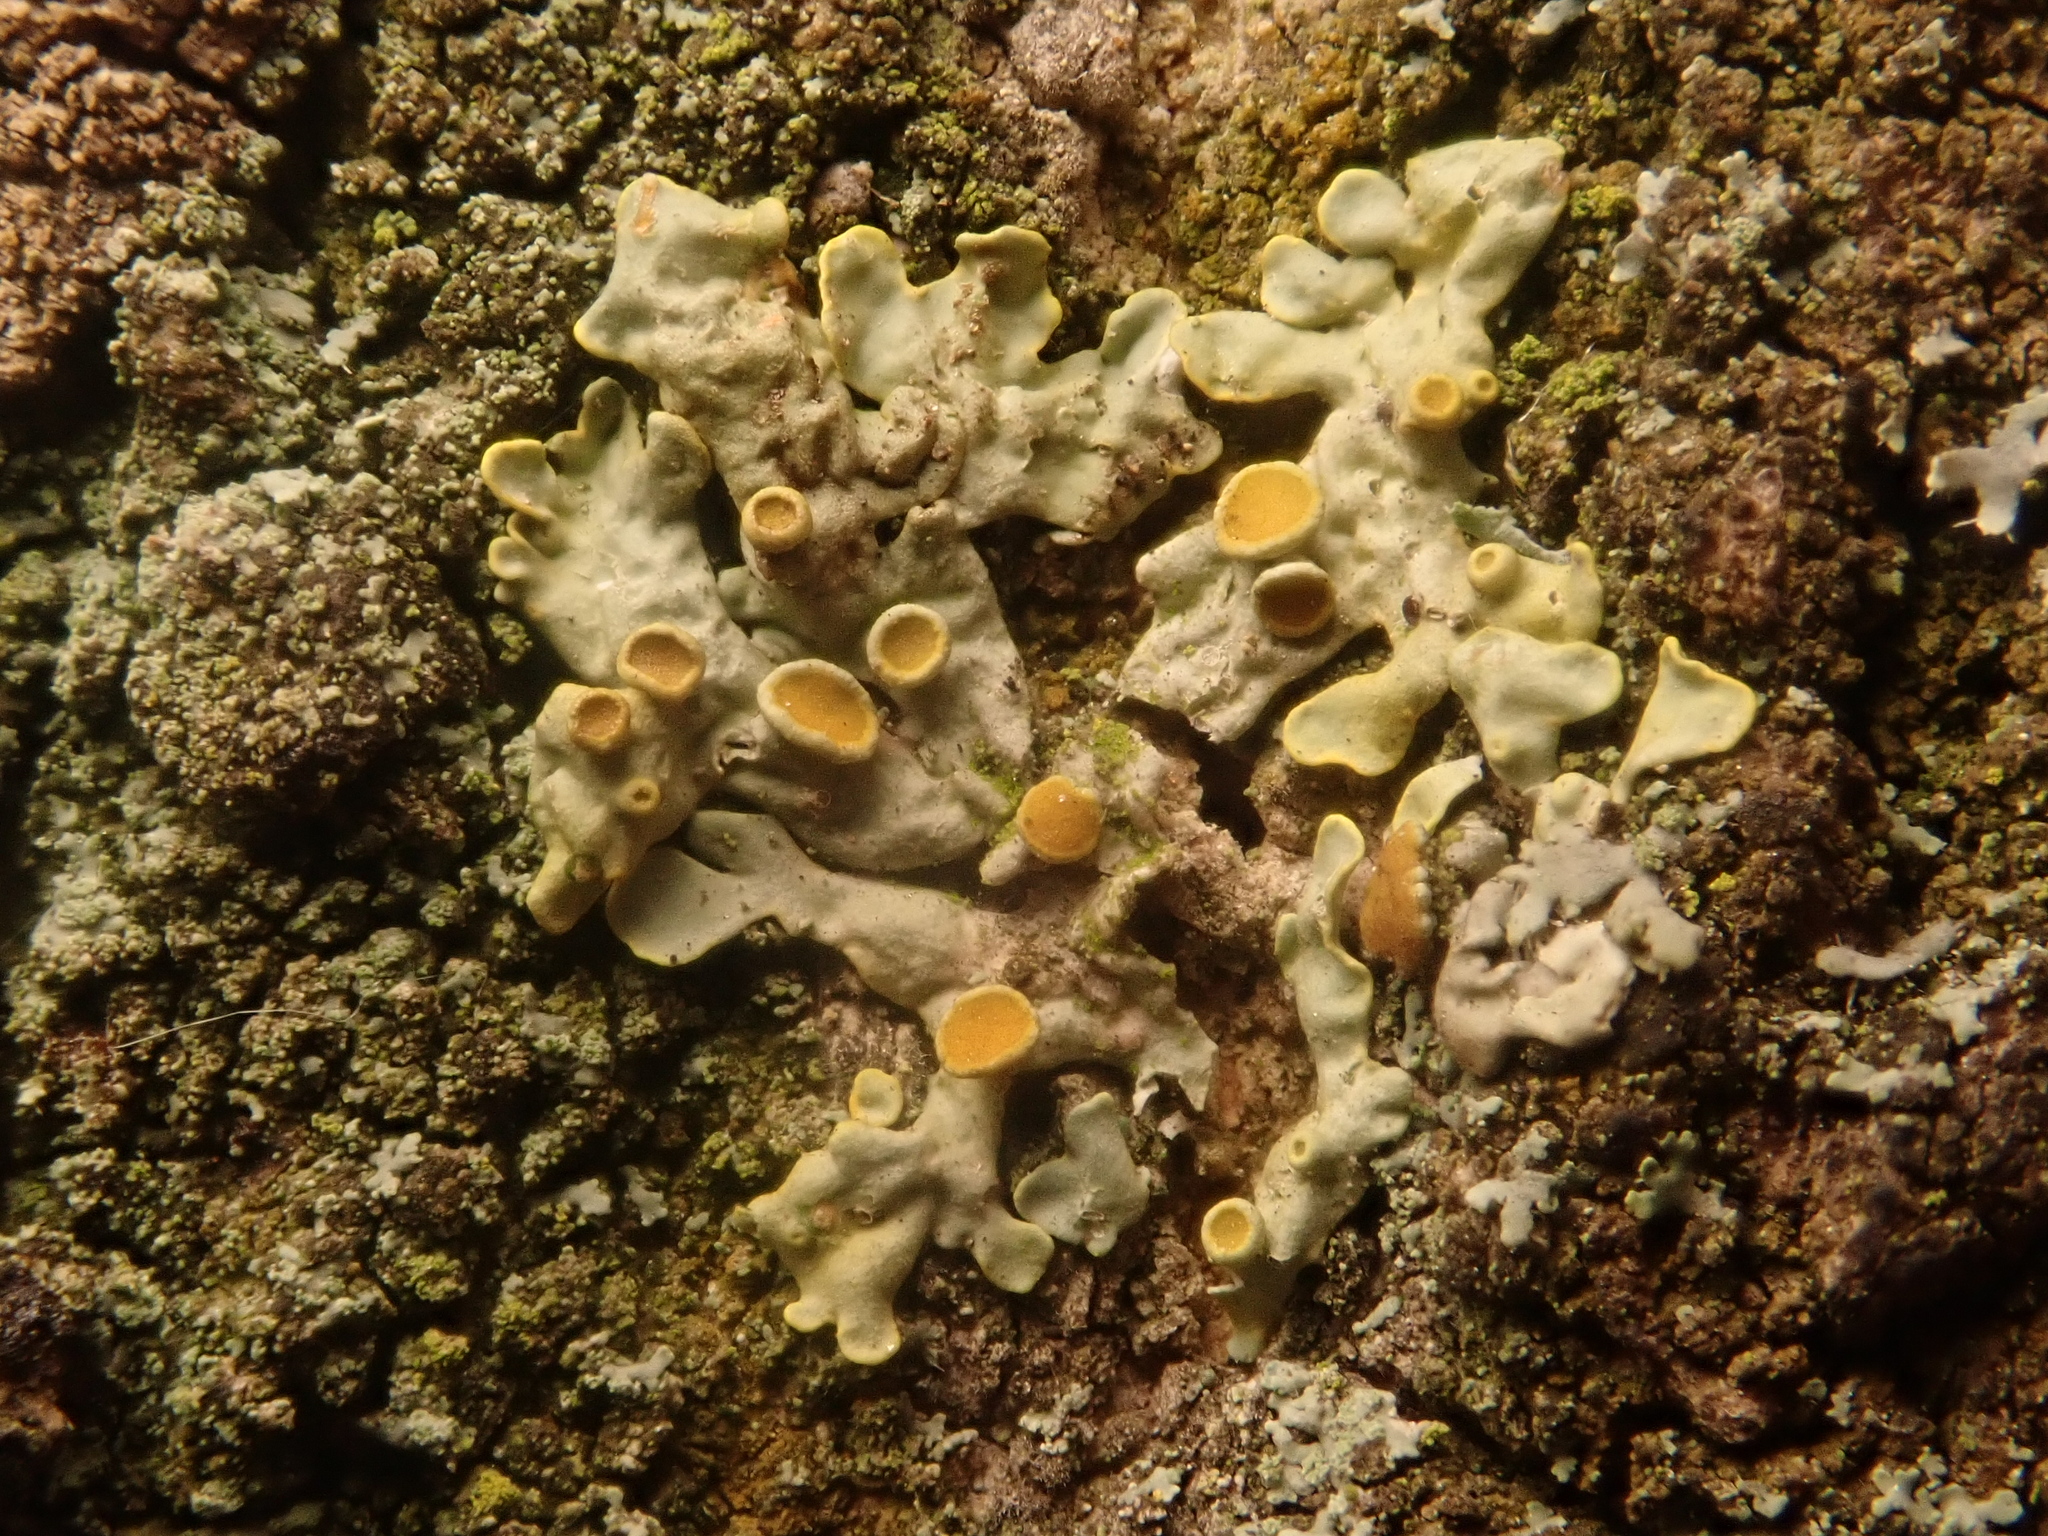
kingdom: Fungi
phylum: Ascomycota
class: Lecanoromycetes
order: Teloschistales
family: Teloschistaceae
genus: Xanthoria
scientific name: Xanthoria parietina
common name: Common orange lichen
